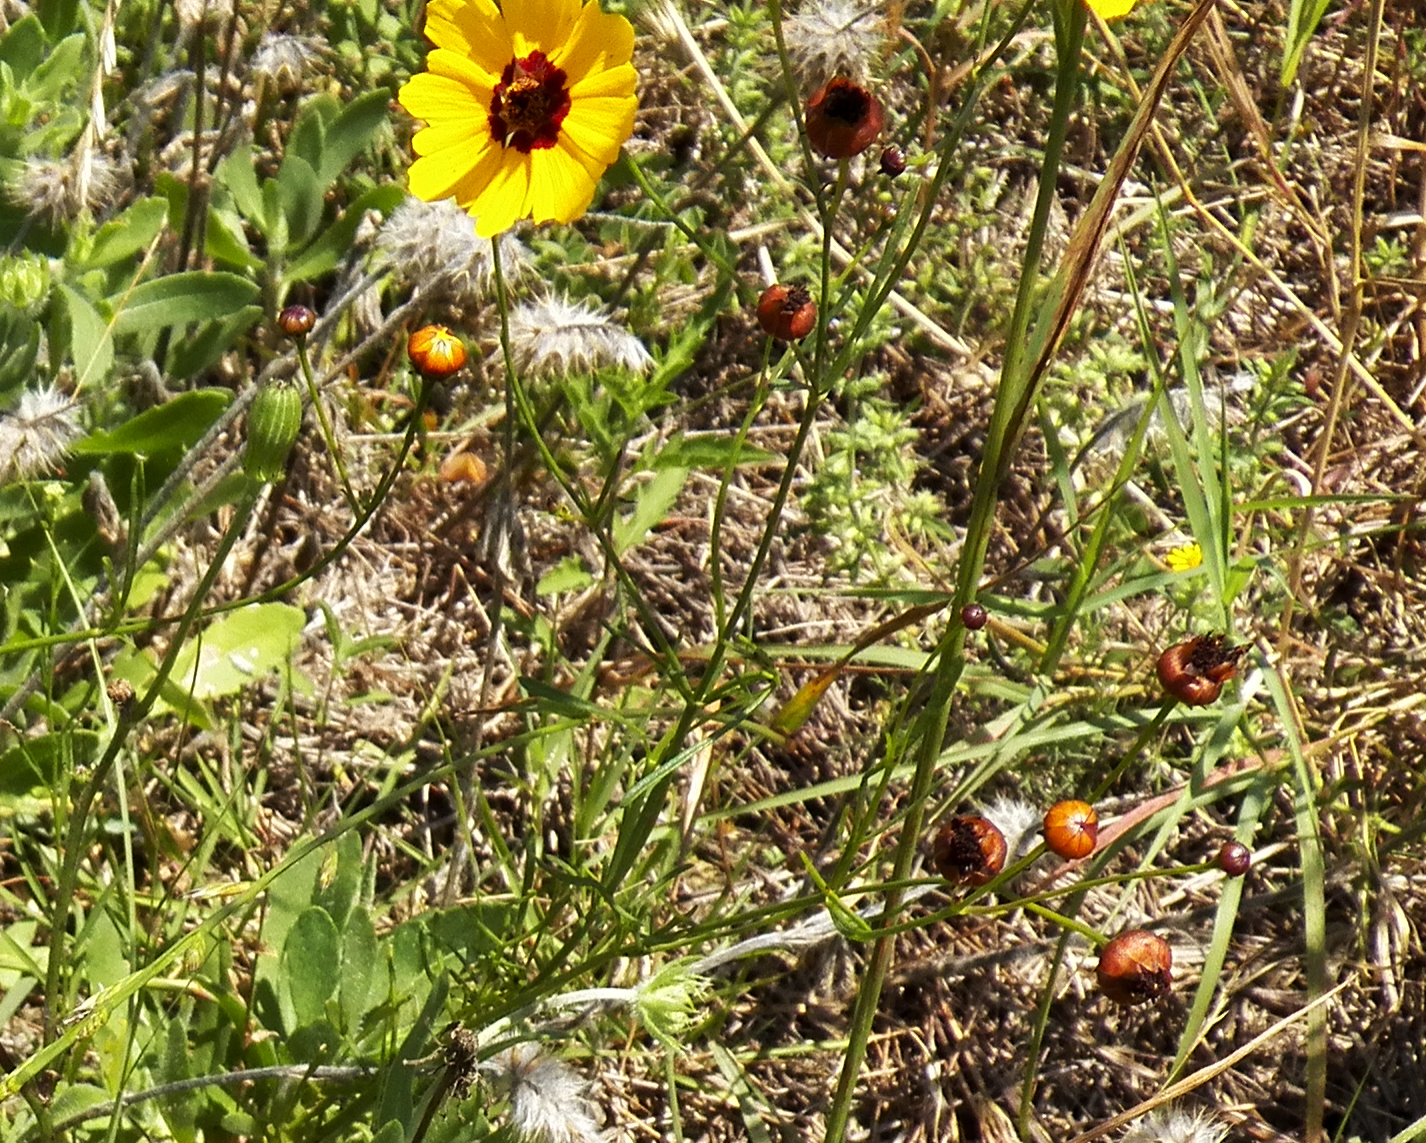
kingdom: Plantae
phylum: Tracheophyta
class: Magnoliopsida
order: Asterales
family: Asteraceae
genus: Coreopsis
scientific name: Coreopsis tinctoria
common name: Garden tickseed
